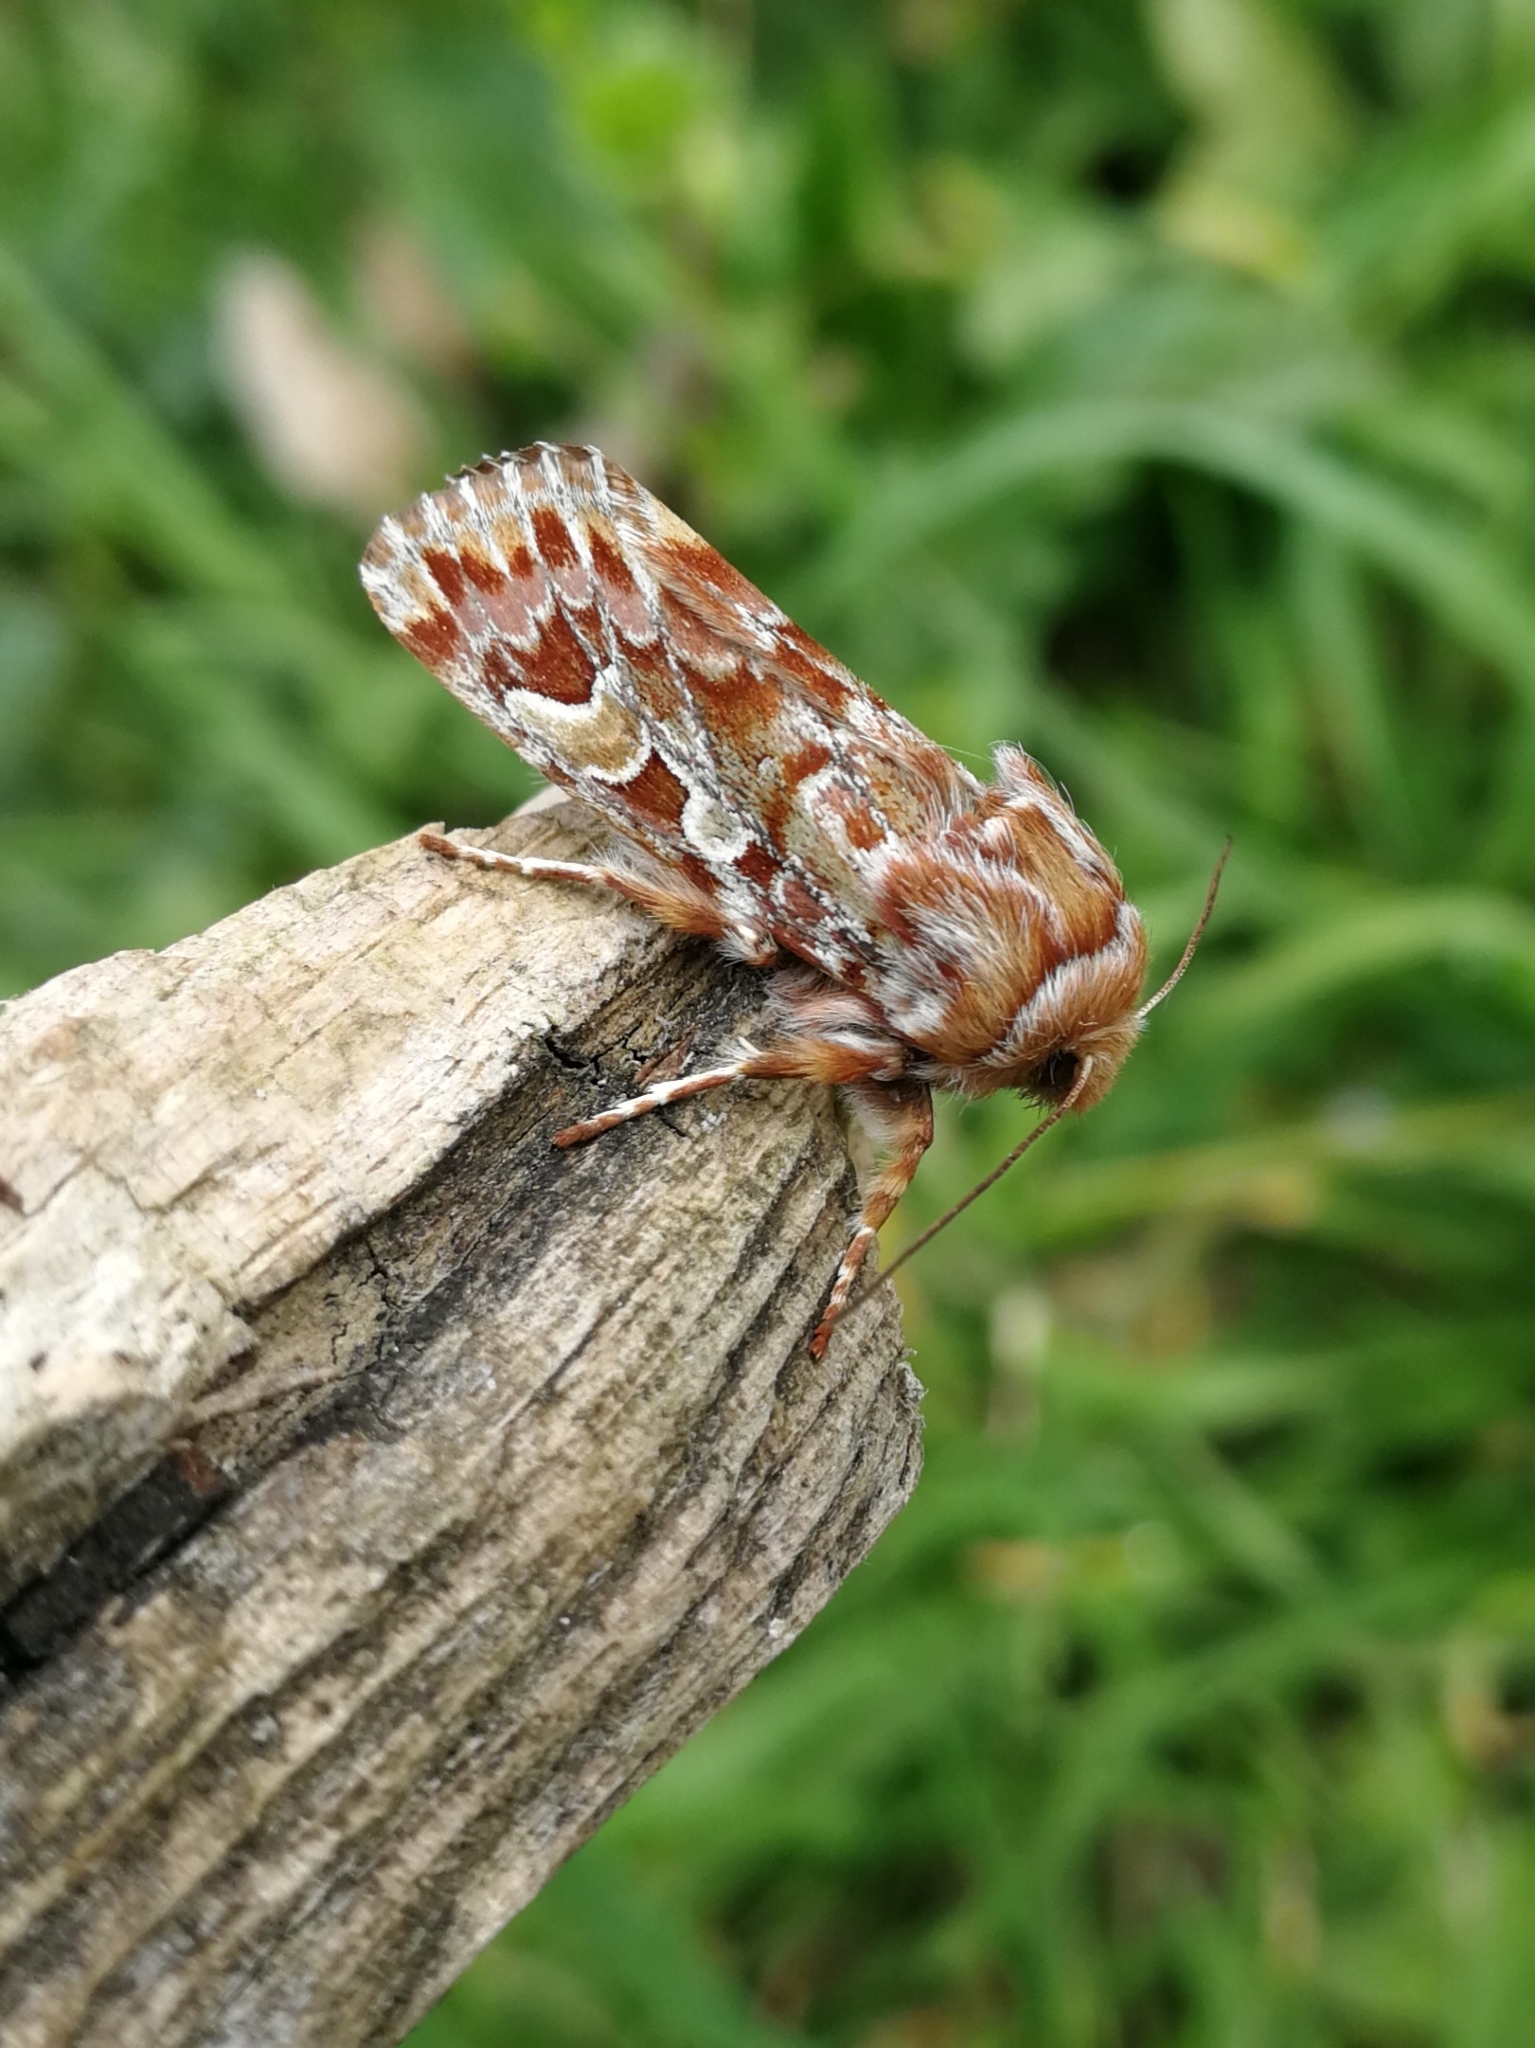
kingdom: Animalia
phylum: Arthropoda
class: Insecta
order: Lepidoptera
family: Noctuidae
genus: Panolis
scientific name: Panolis flammea
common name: Pine beauty
